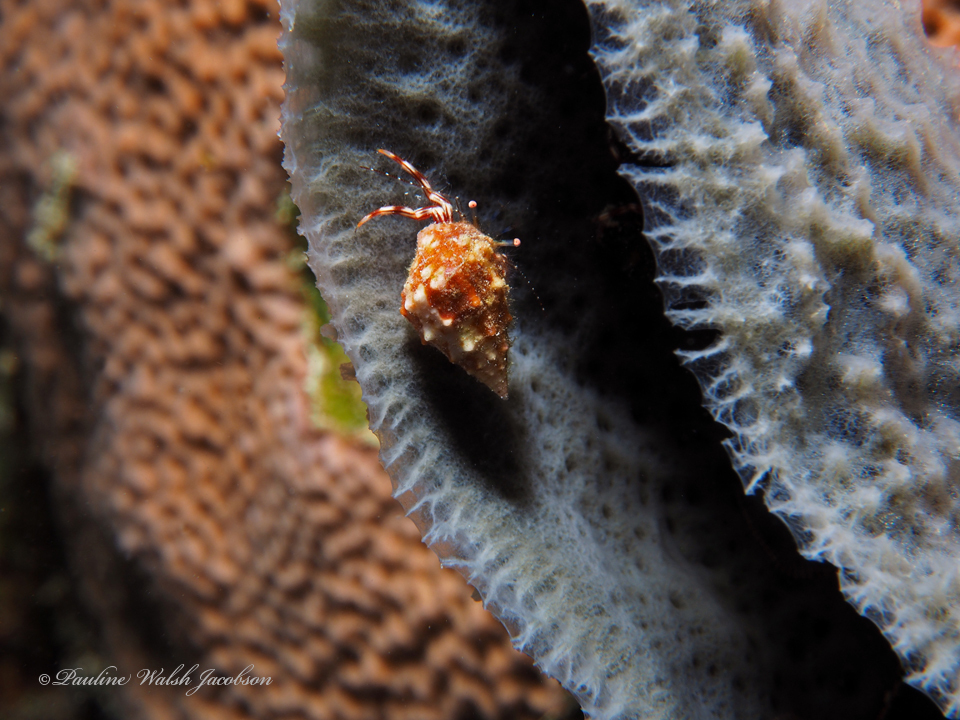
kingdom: Animalia
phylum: Arthropoda
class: Malacostraca
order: Decapoda
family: Paguridae
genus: Pagurus
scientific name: Pagurus brevidactylus
